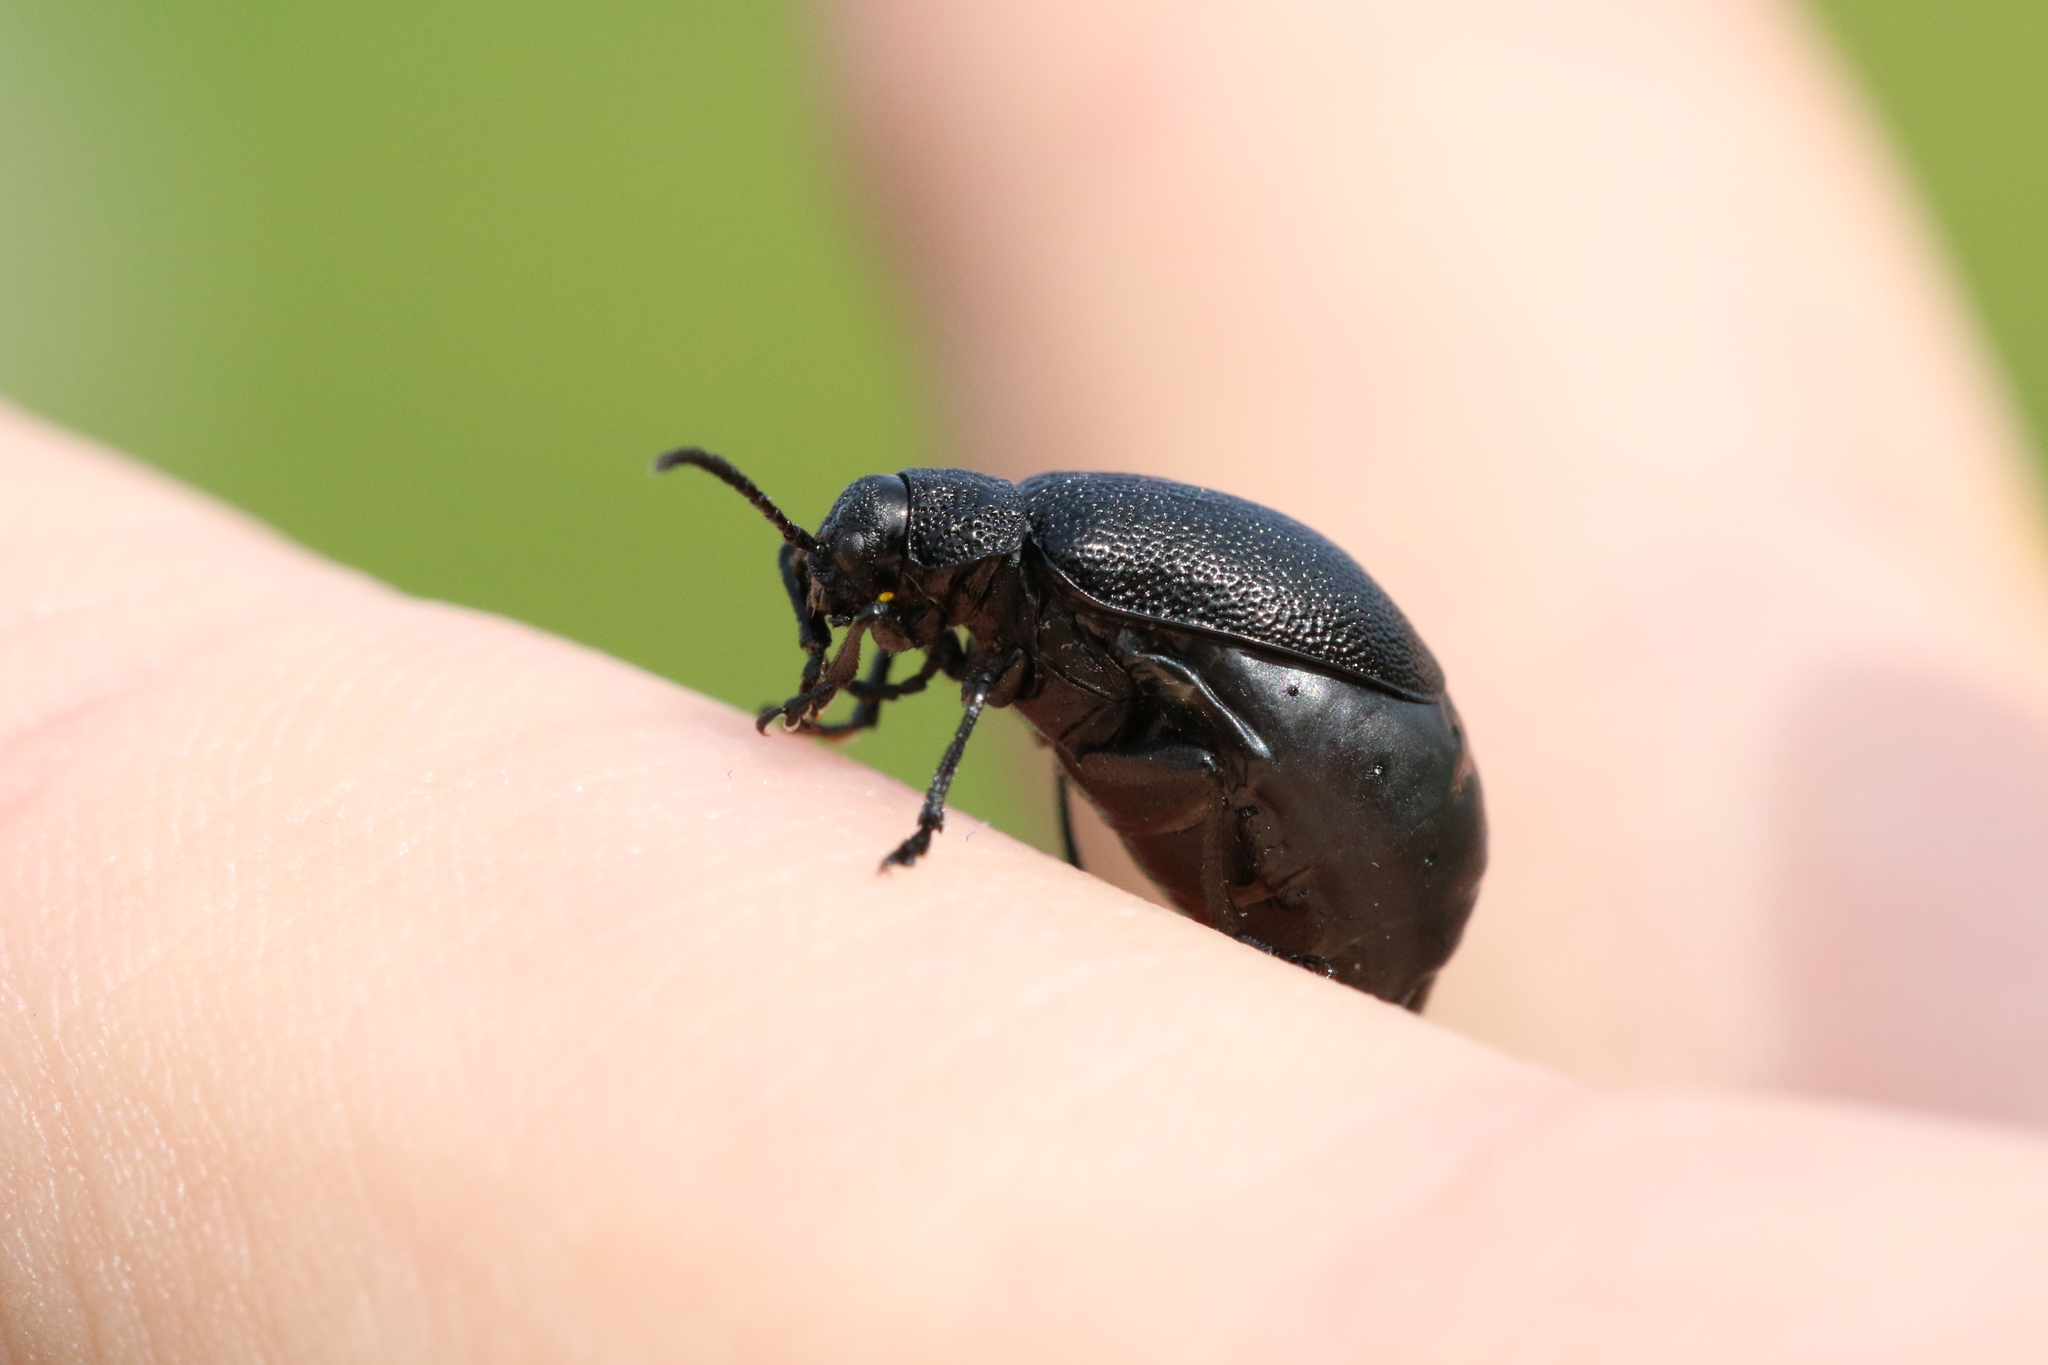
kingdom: Animalia
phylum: Arthropoda
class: Insecta
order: Coleoptera
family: Chrysomelidae
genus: Galeruca
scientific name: Galeruca tanaceti
